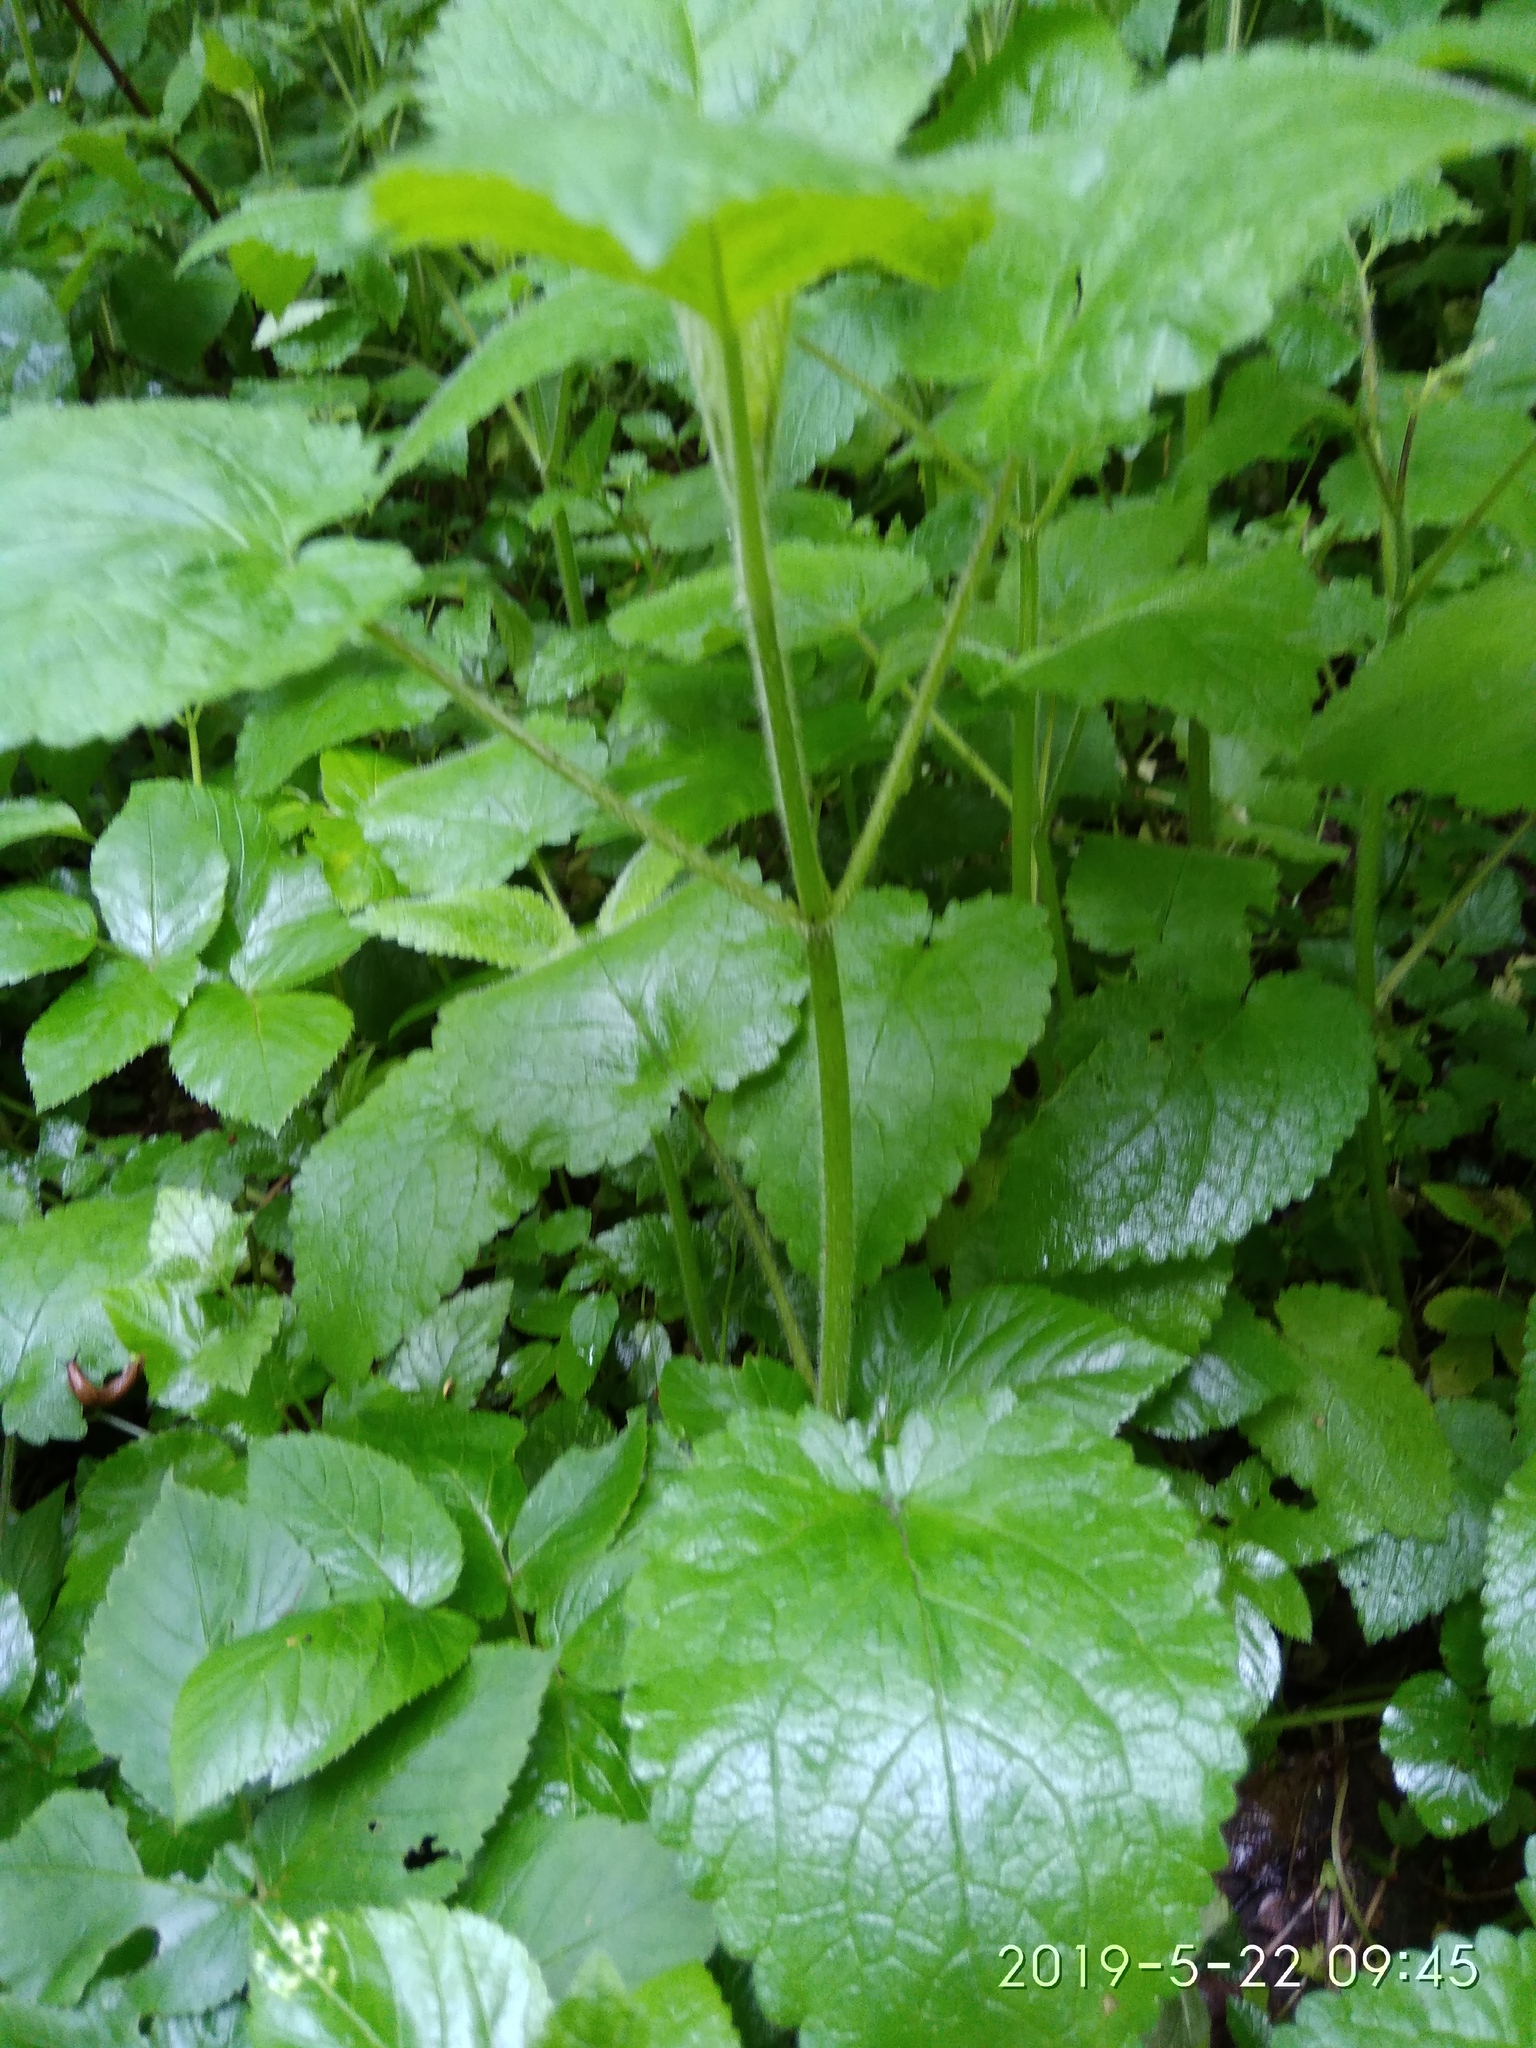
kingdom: Plantae
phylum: Tracheophyta
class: Magnoliopsida
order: Lamiales
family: Lamiaceae
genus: Stachys
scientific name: Stachys sylvatica
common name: Hedge woundwort
